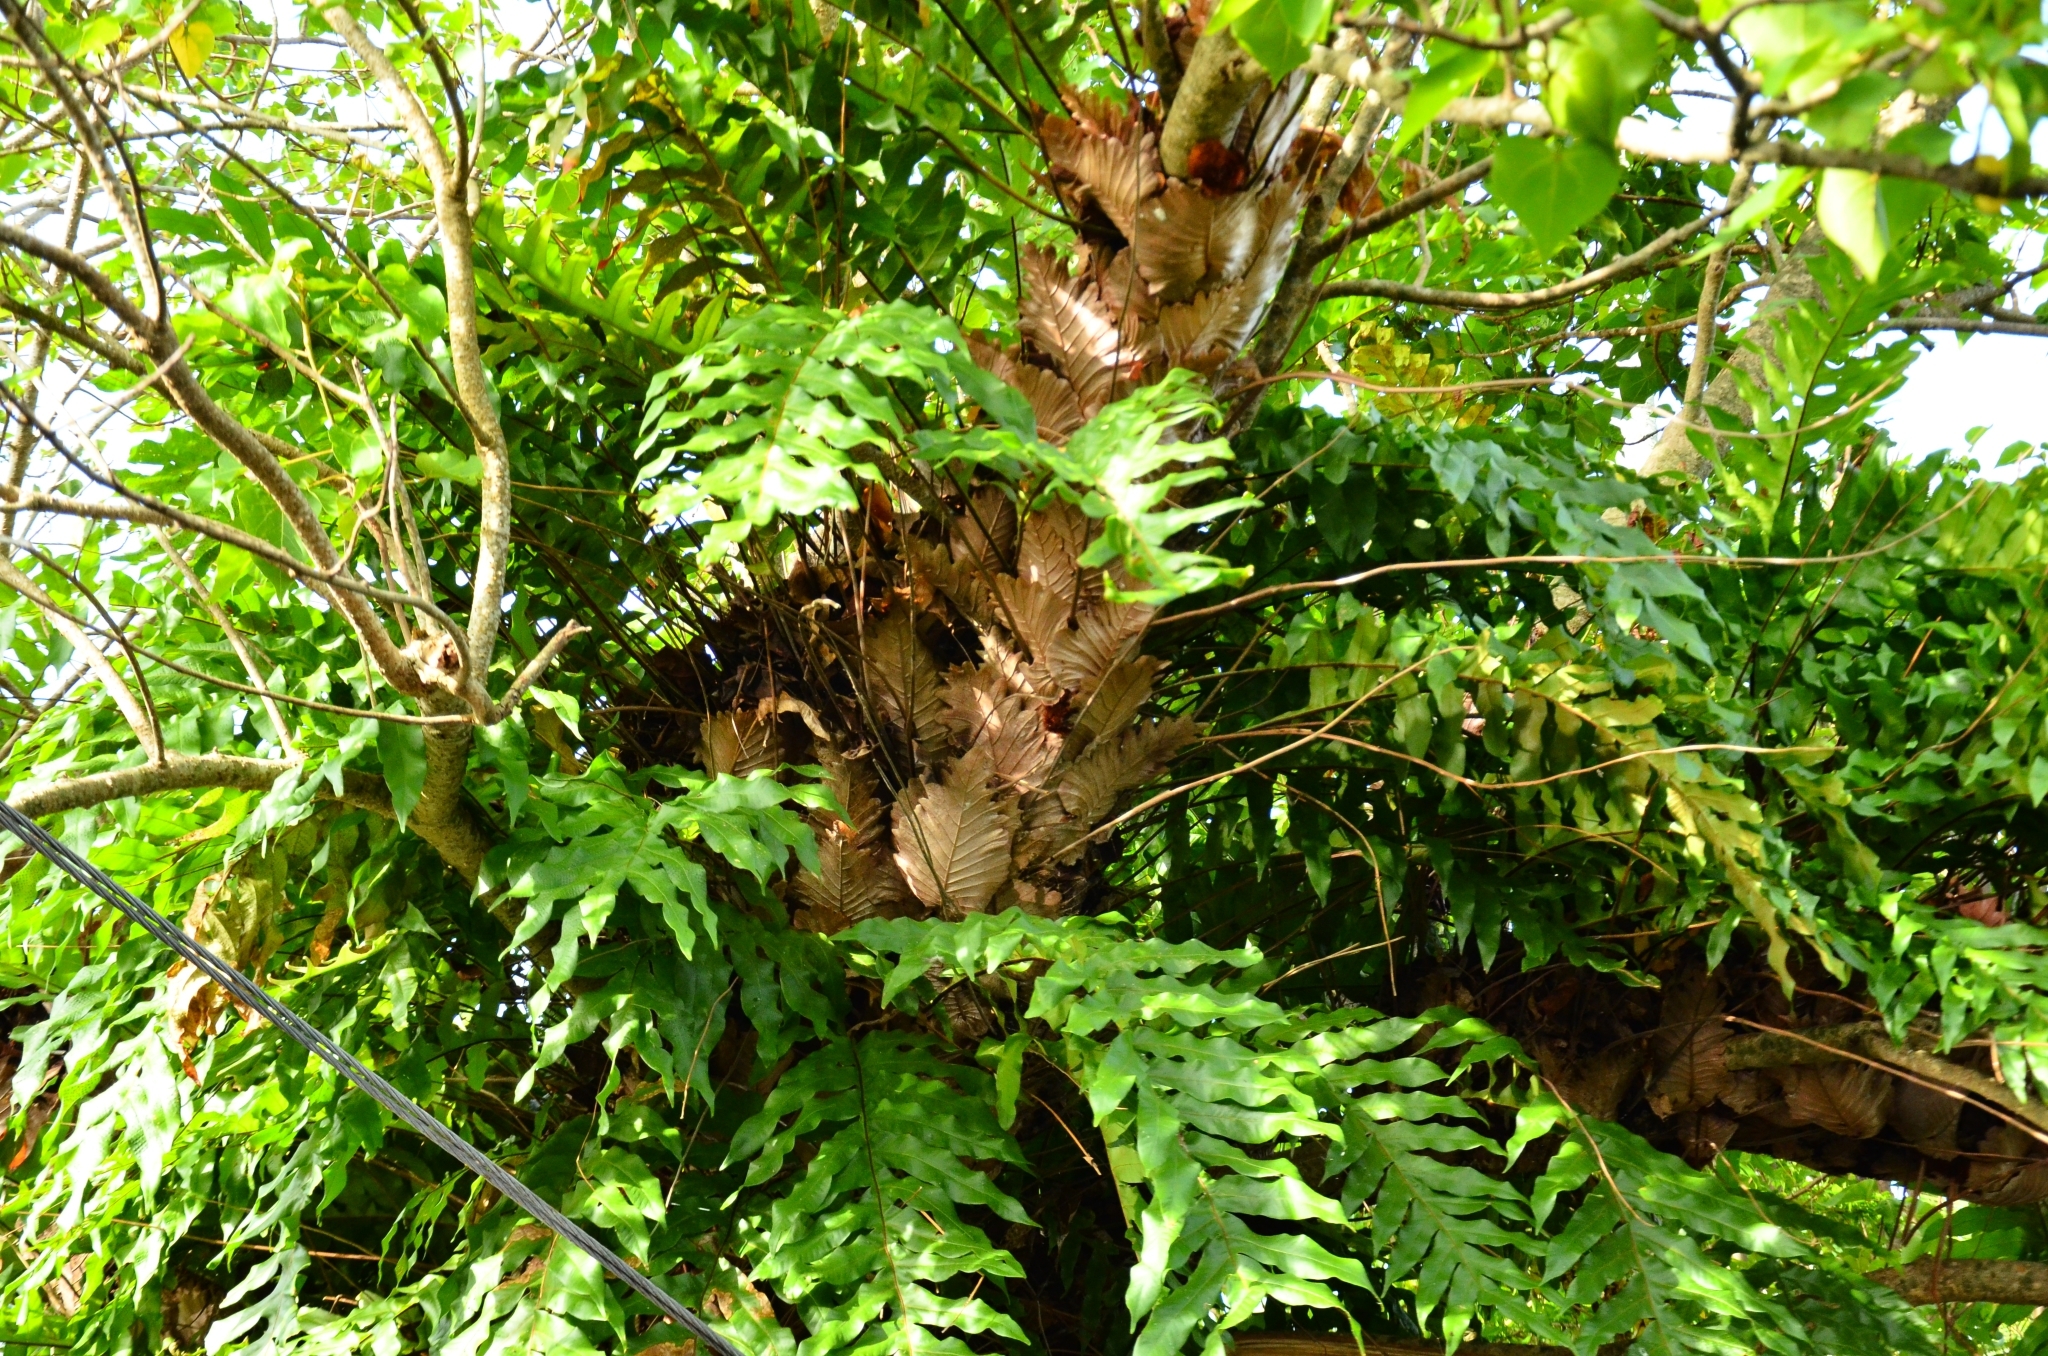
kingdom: Plantae
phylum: Tracheophyta
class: Polypodiopsida
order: Polypodiales
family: Polypodiaceae
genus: Drynaria
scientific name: Drynaria quercifolia
